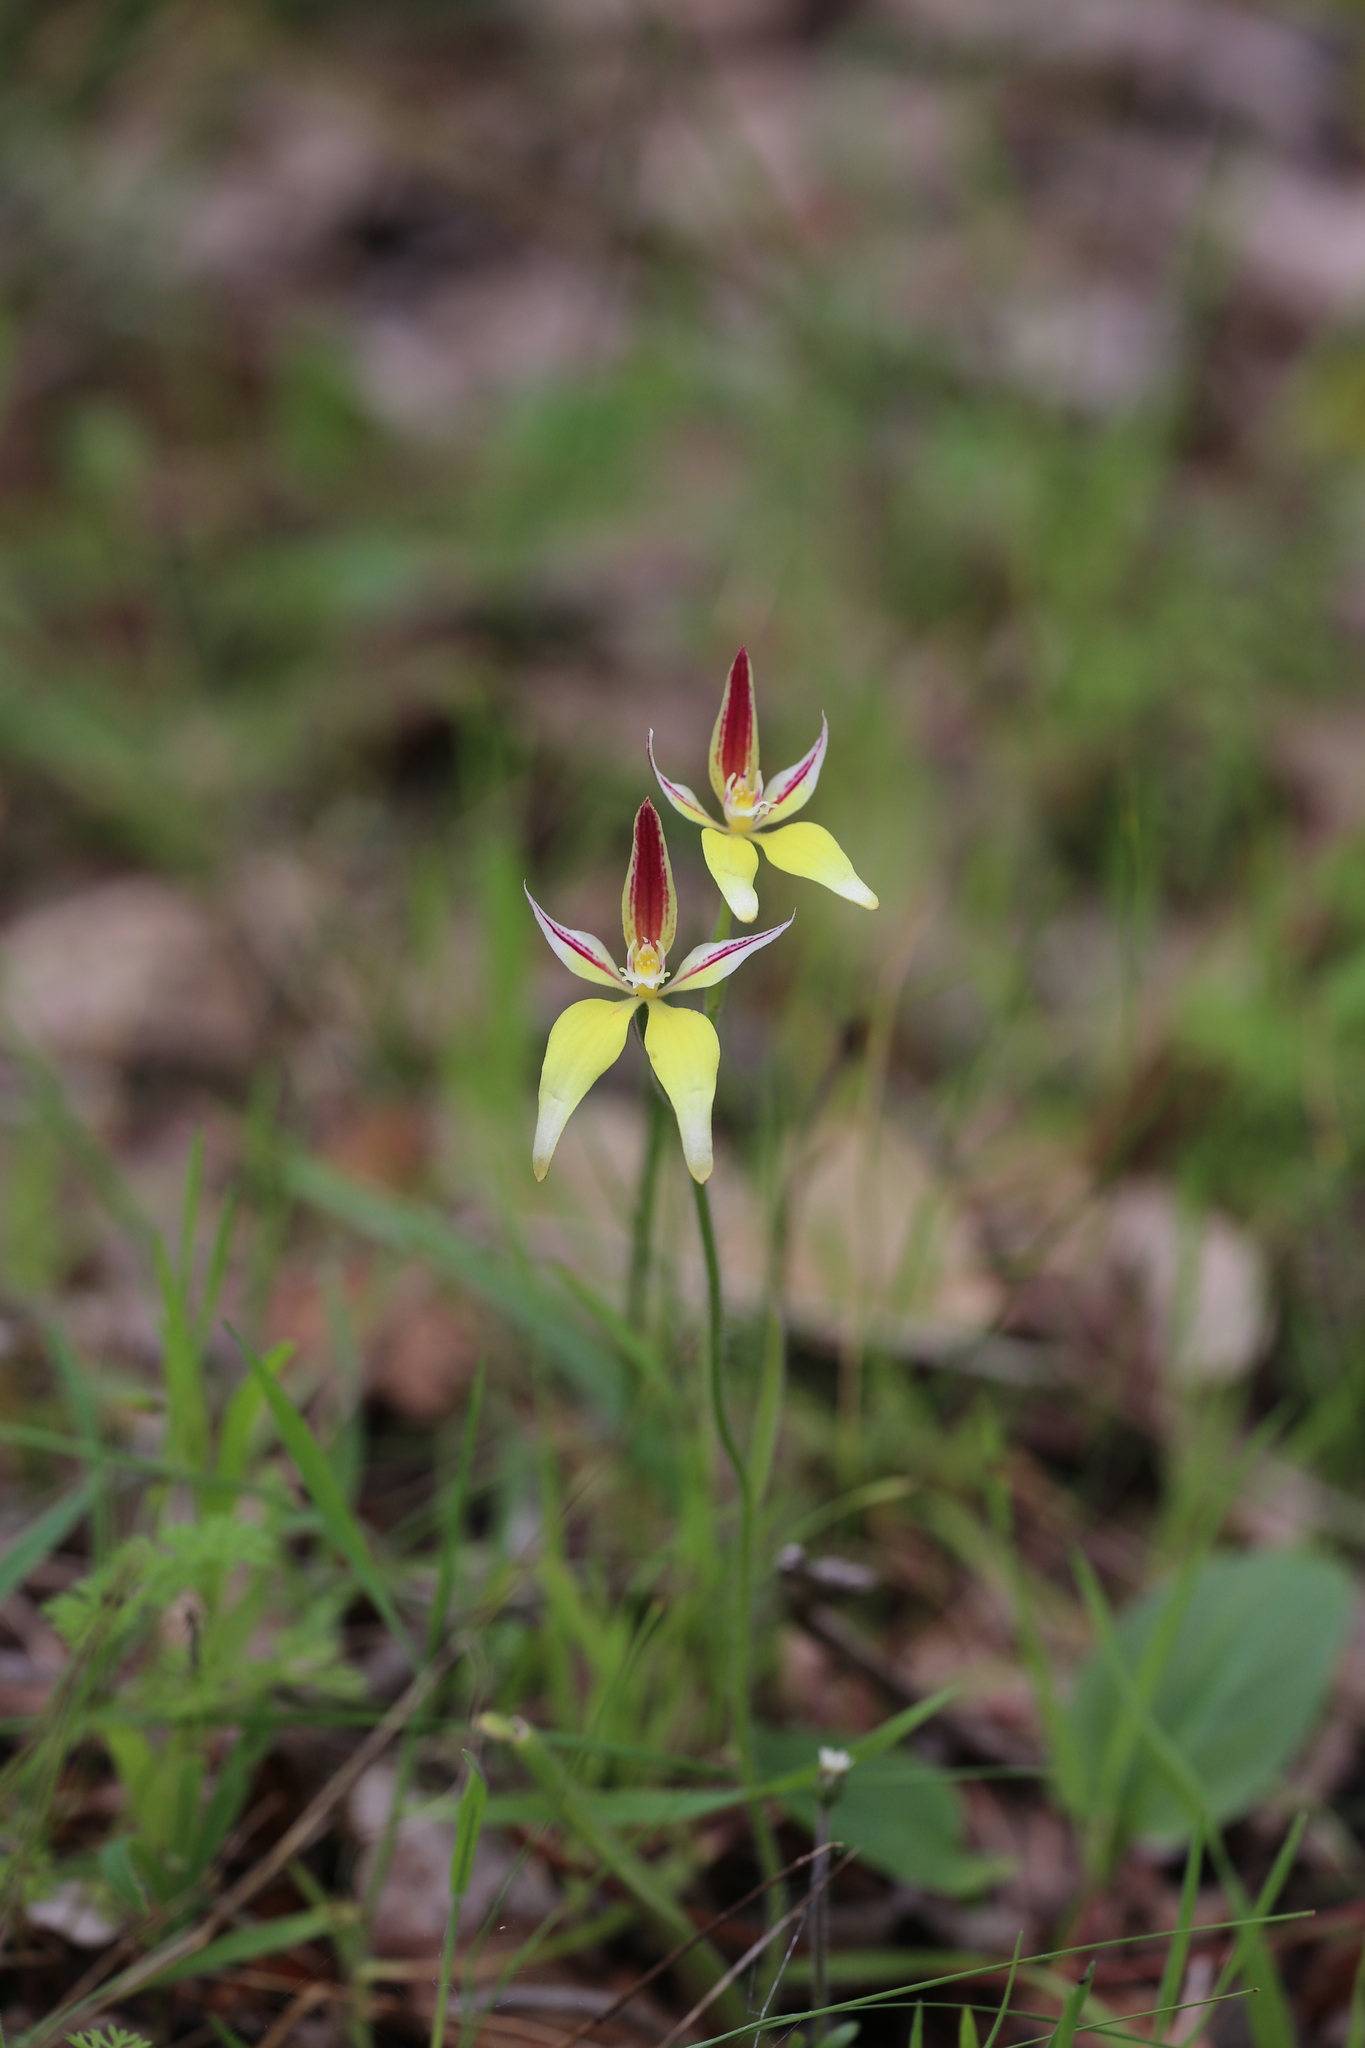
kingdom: Plantae
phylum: Tracheophyta
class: Liliopsida
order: Asparagales
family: Orchidaceae
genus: Caladenia
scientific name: Caladenia flava
